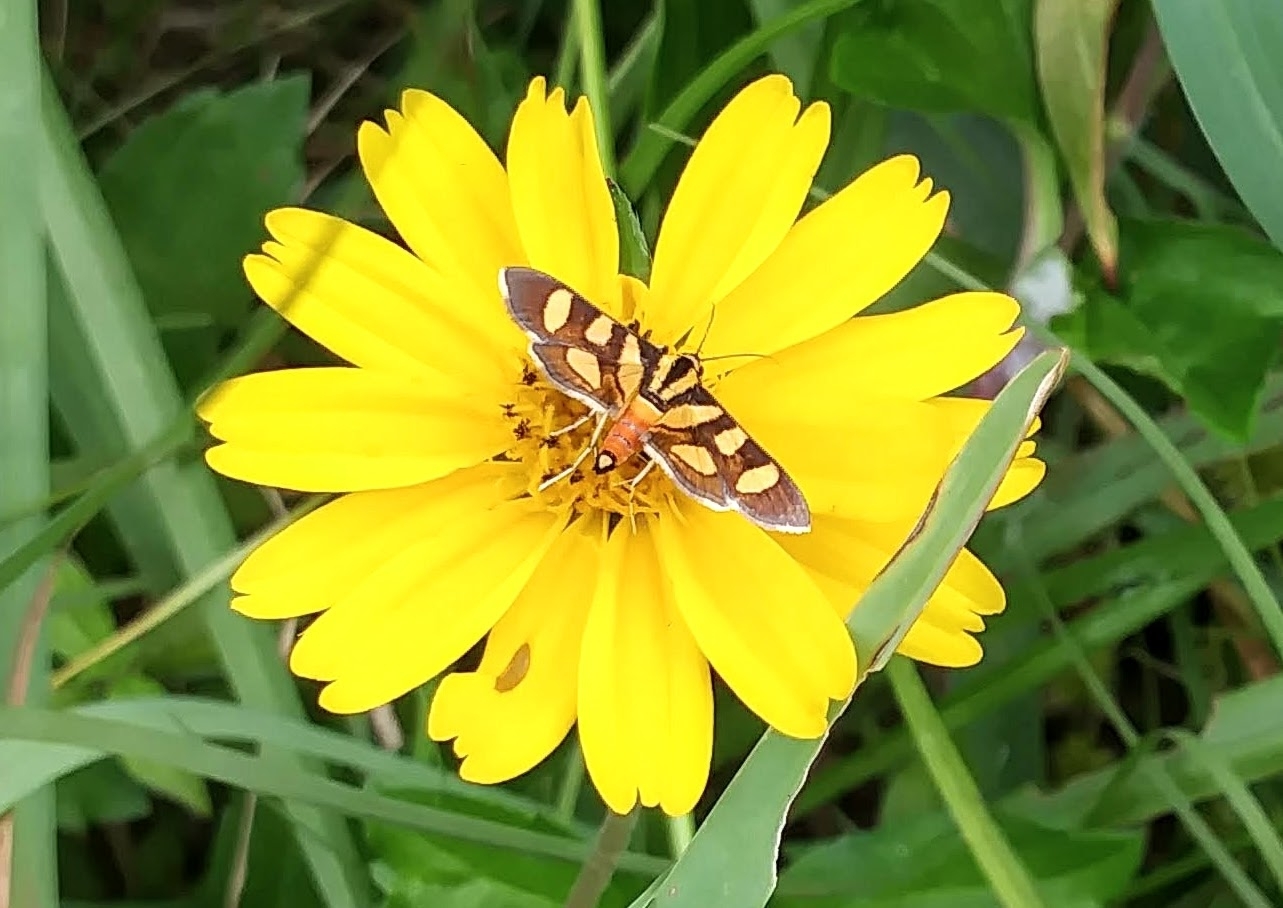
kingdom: Animalia
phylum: Arthropoda
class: Insecta
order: Lepidoptera
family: Crambidae
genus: Syngamia
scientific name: Syngamia florella
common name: Orange-spotted flower moth
